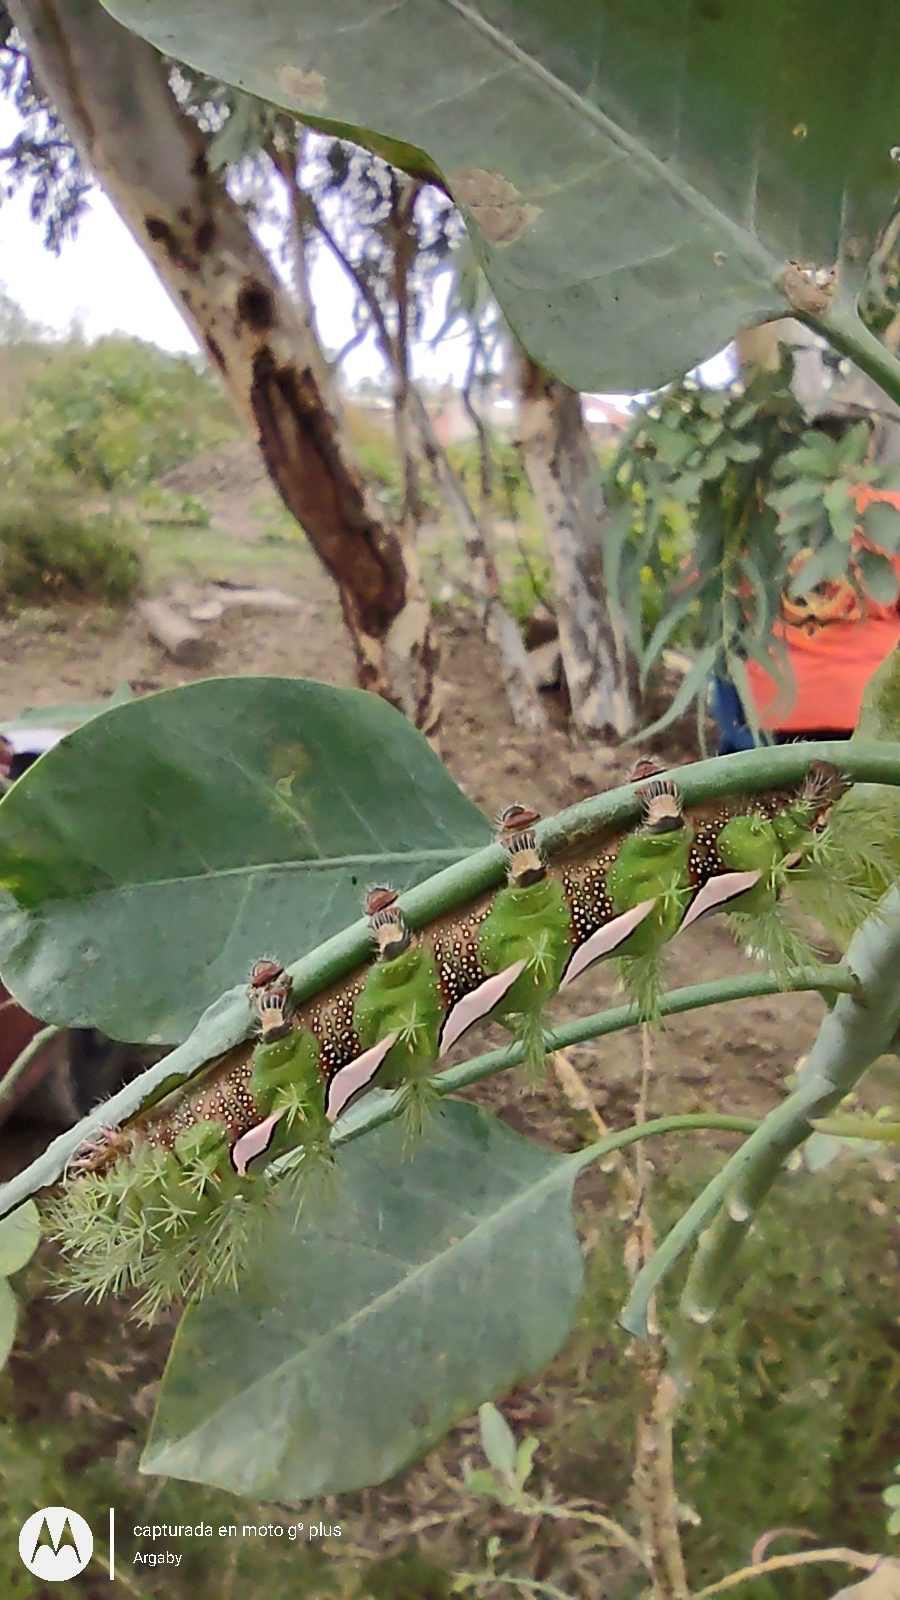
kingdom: Animalia
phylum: Arthropoda
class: Insecta
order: Lepidoptera
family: Saturniidae
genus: Automeris
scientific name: Automeris naranja
